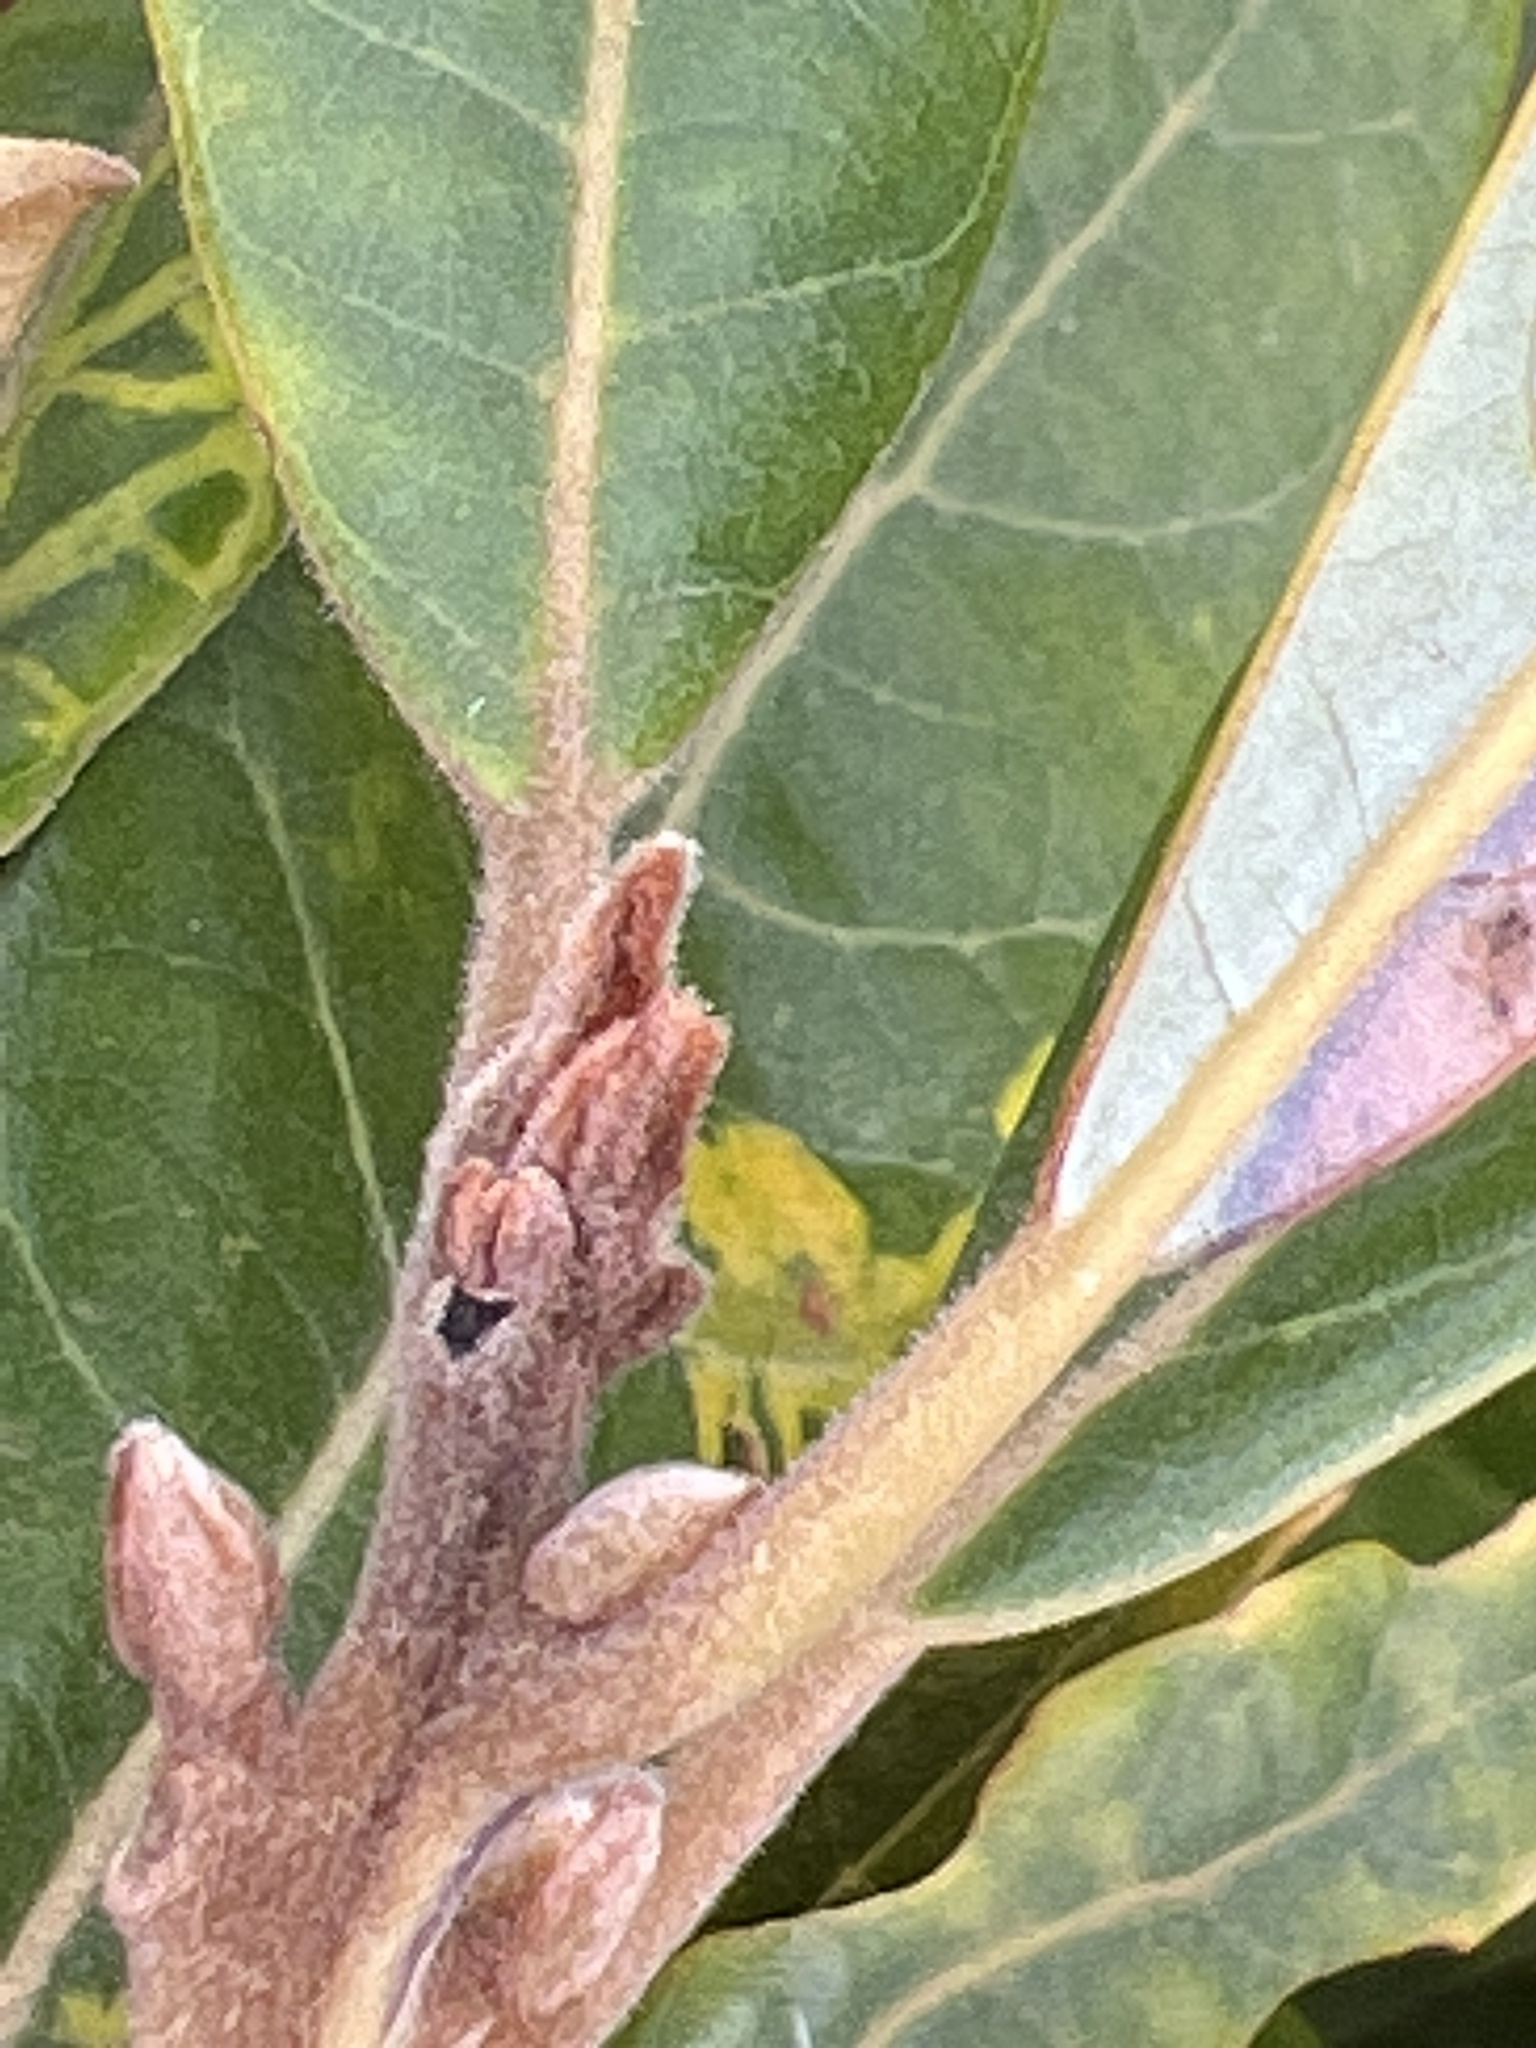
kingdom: Plantae
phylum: Tracheophyta
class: Magnoliopsida
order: Laurales
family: Lauraceae
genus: Persea
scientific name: Persea palustris
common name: Swampbay
